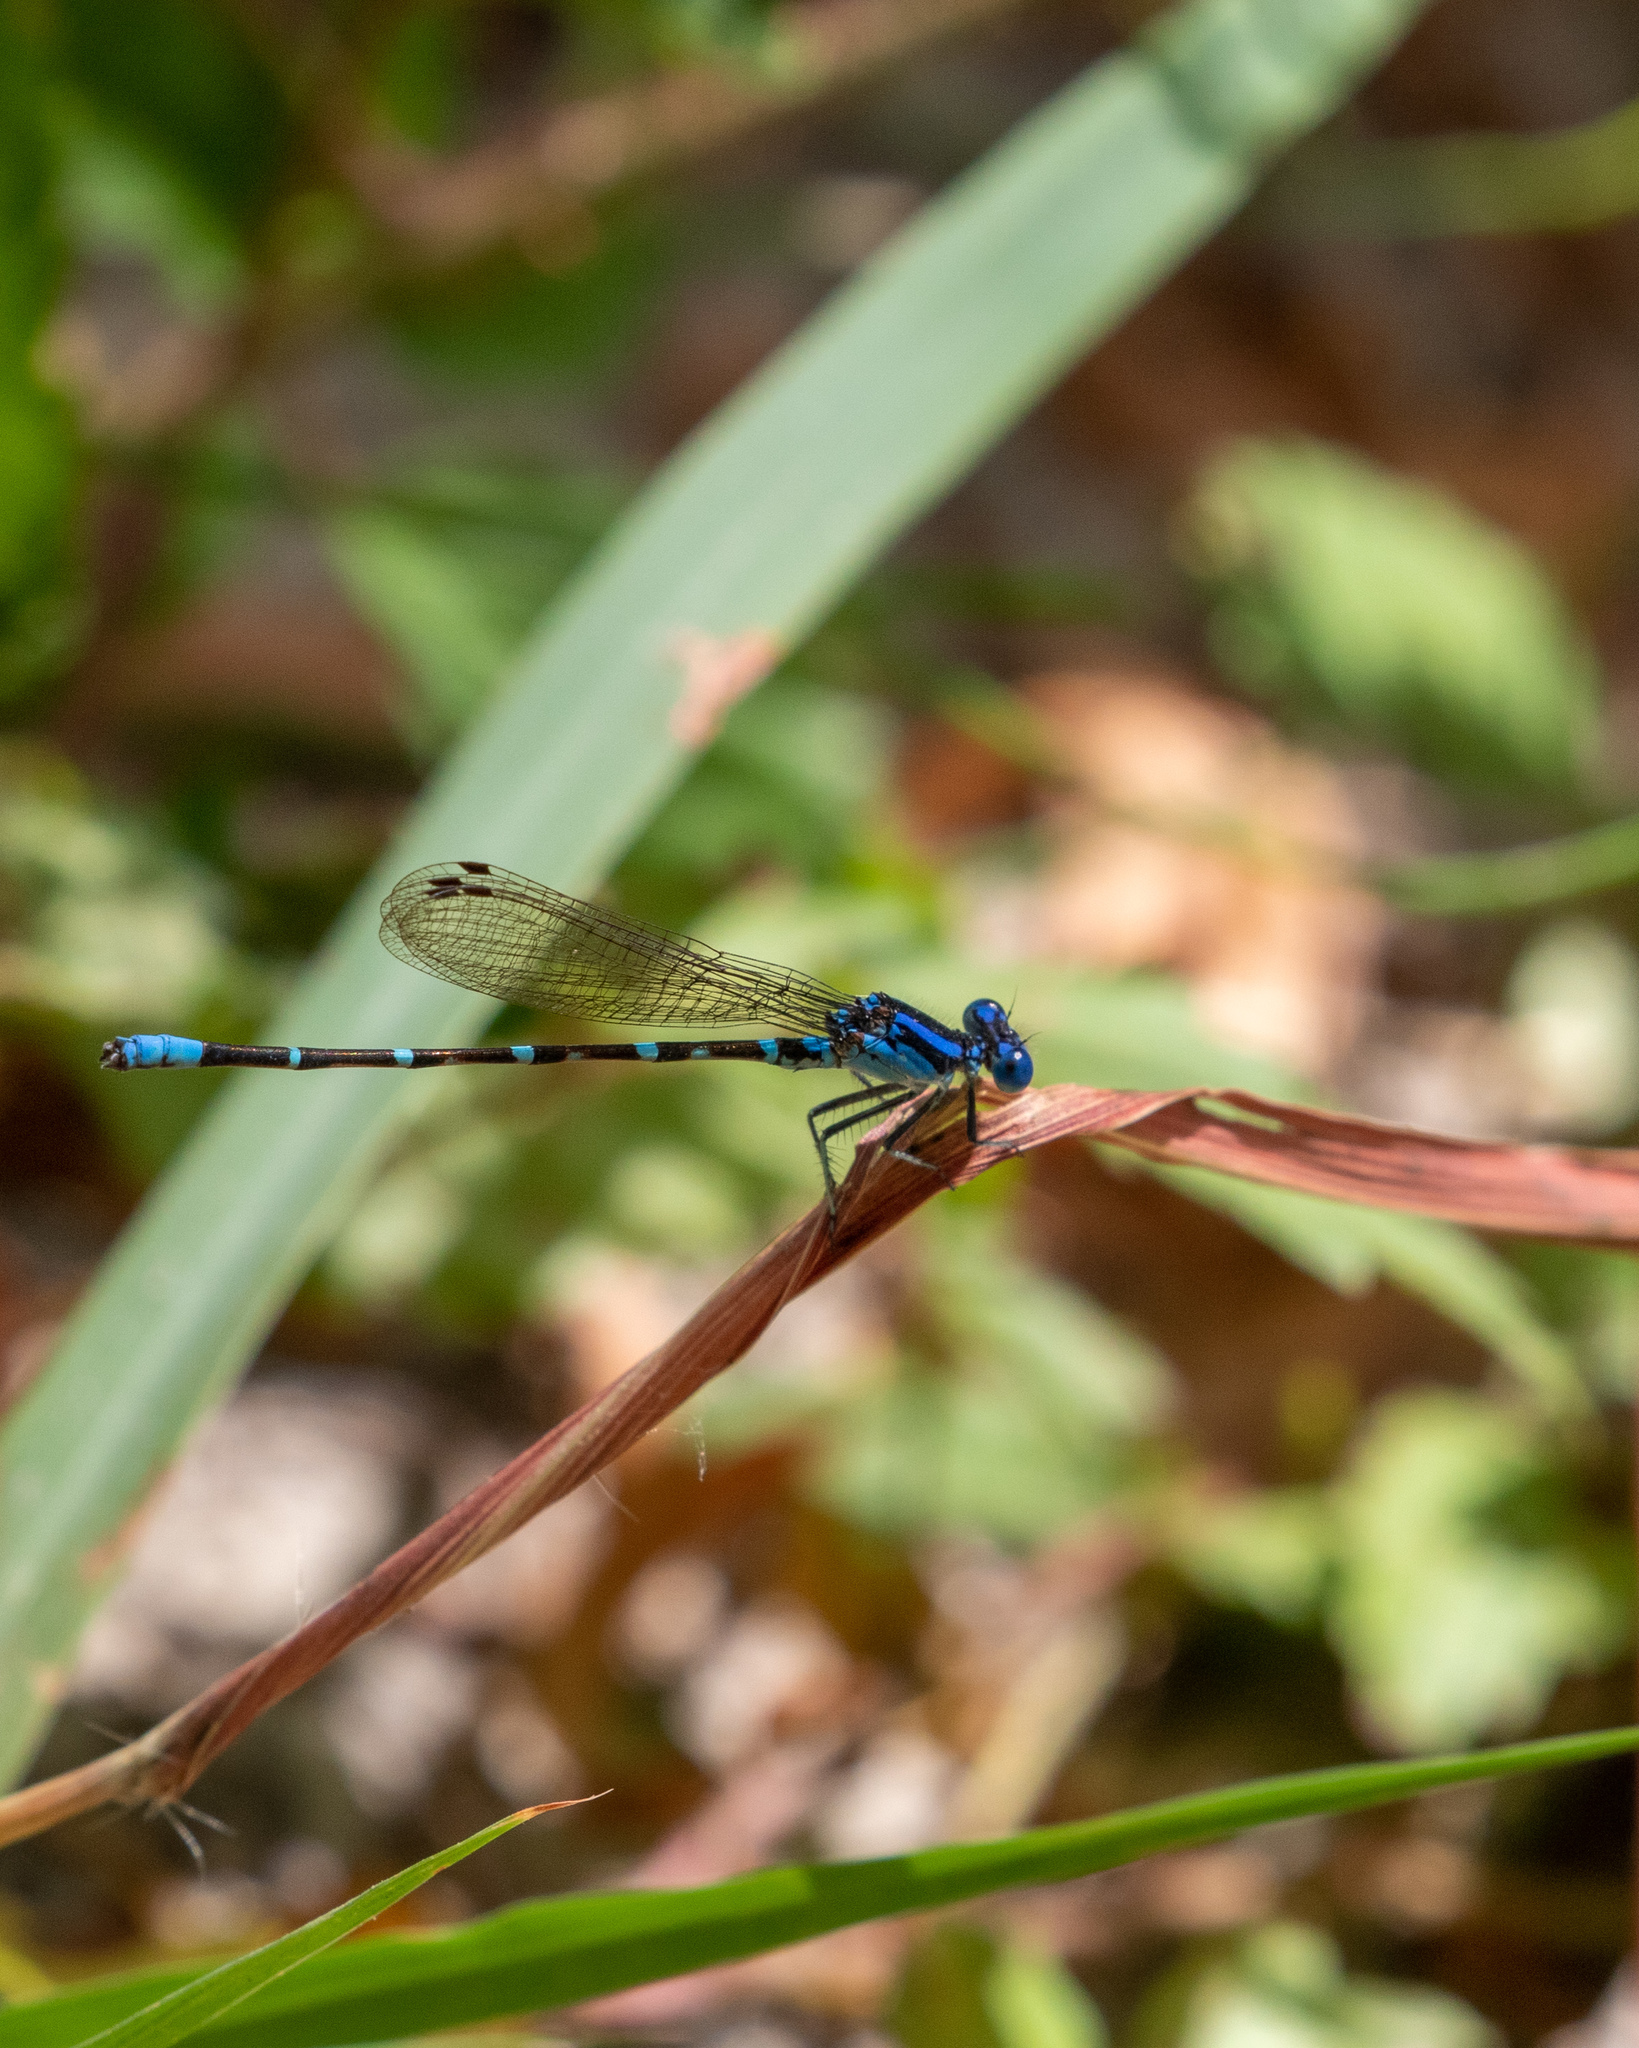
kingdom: Animalia
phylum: Arthropoda
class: Insecta
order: Odonata
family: Coenagrionidae
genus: Argia
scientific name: Argia sedula
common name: Blue-ringed dancer
